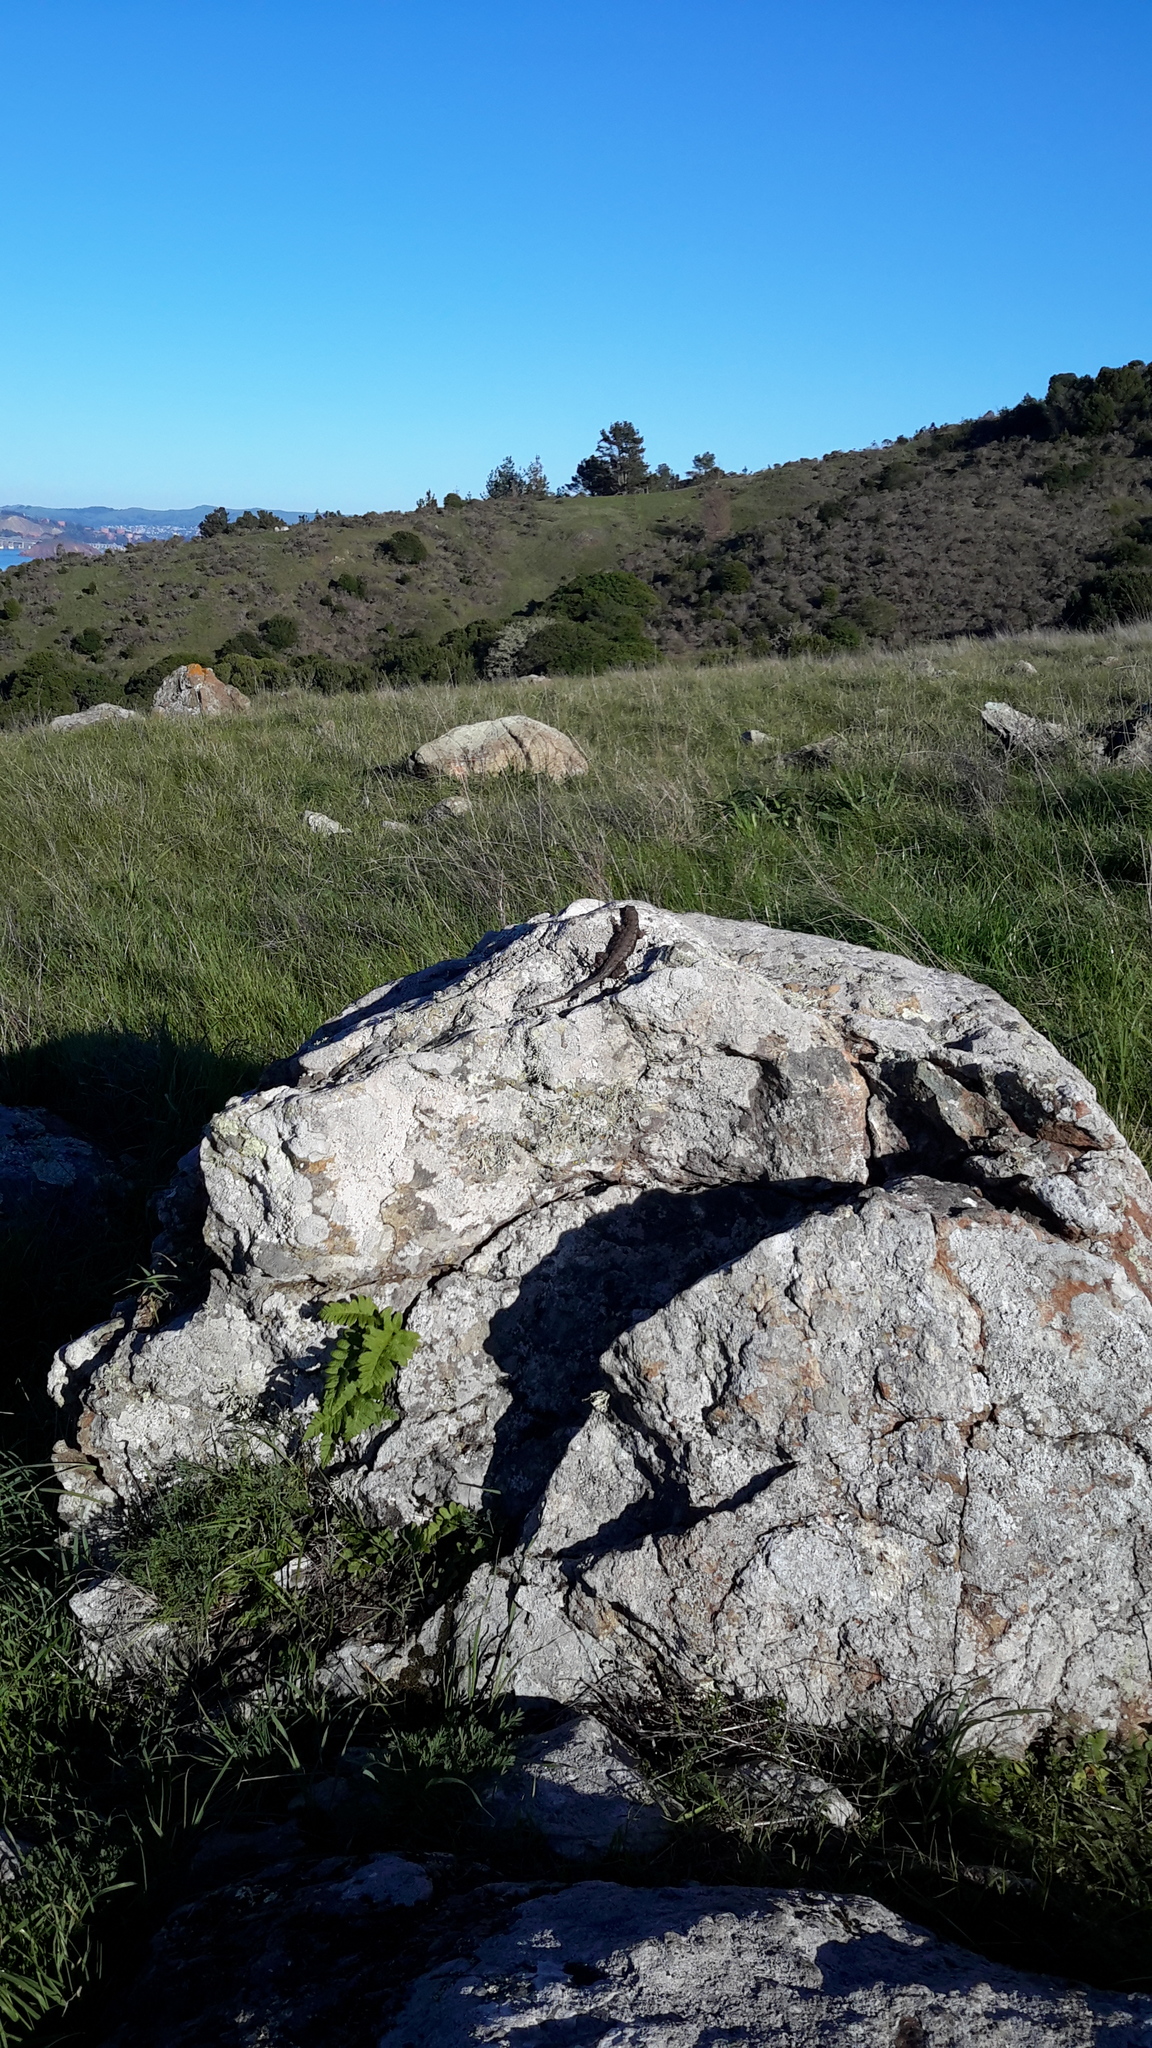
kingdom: Animalia
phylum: Chordata
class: Squamata
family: Phrynosomatidae
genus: Sceloporus
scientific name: Sceloporus occidentalis
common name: Western fence lizard
